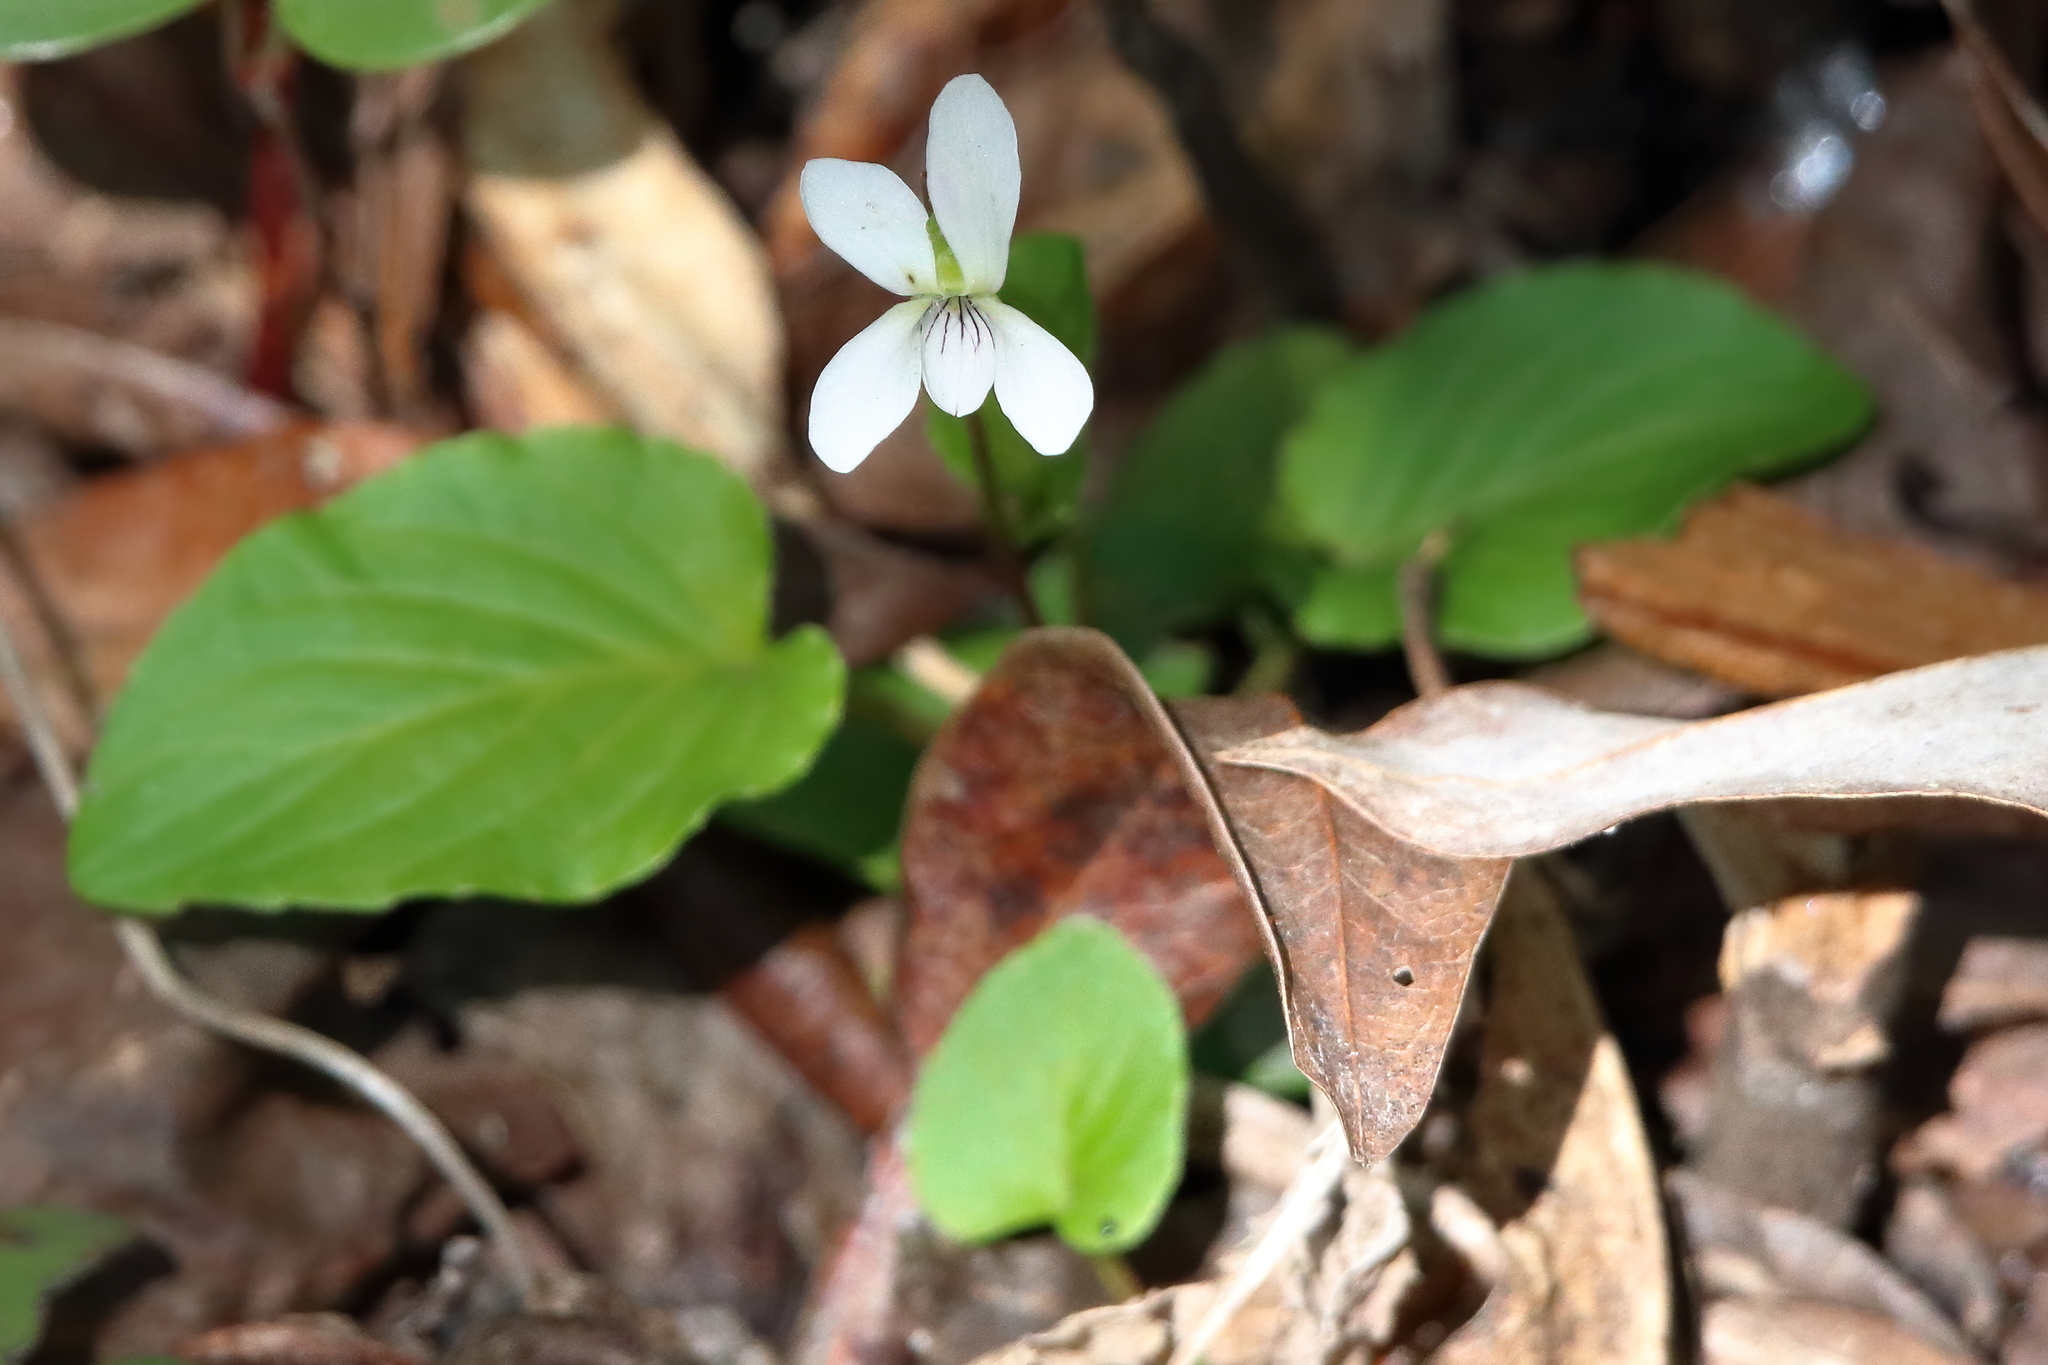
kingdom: Plantae
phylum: Tracheophyta
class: Magnoliopsida
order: Malpighiales
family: Violaceae
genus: Viola
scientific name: Viola primulifolia
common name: Primrose-leaf violet
